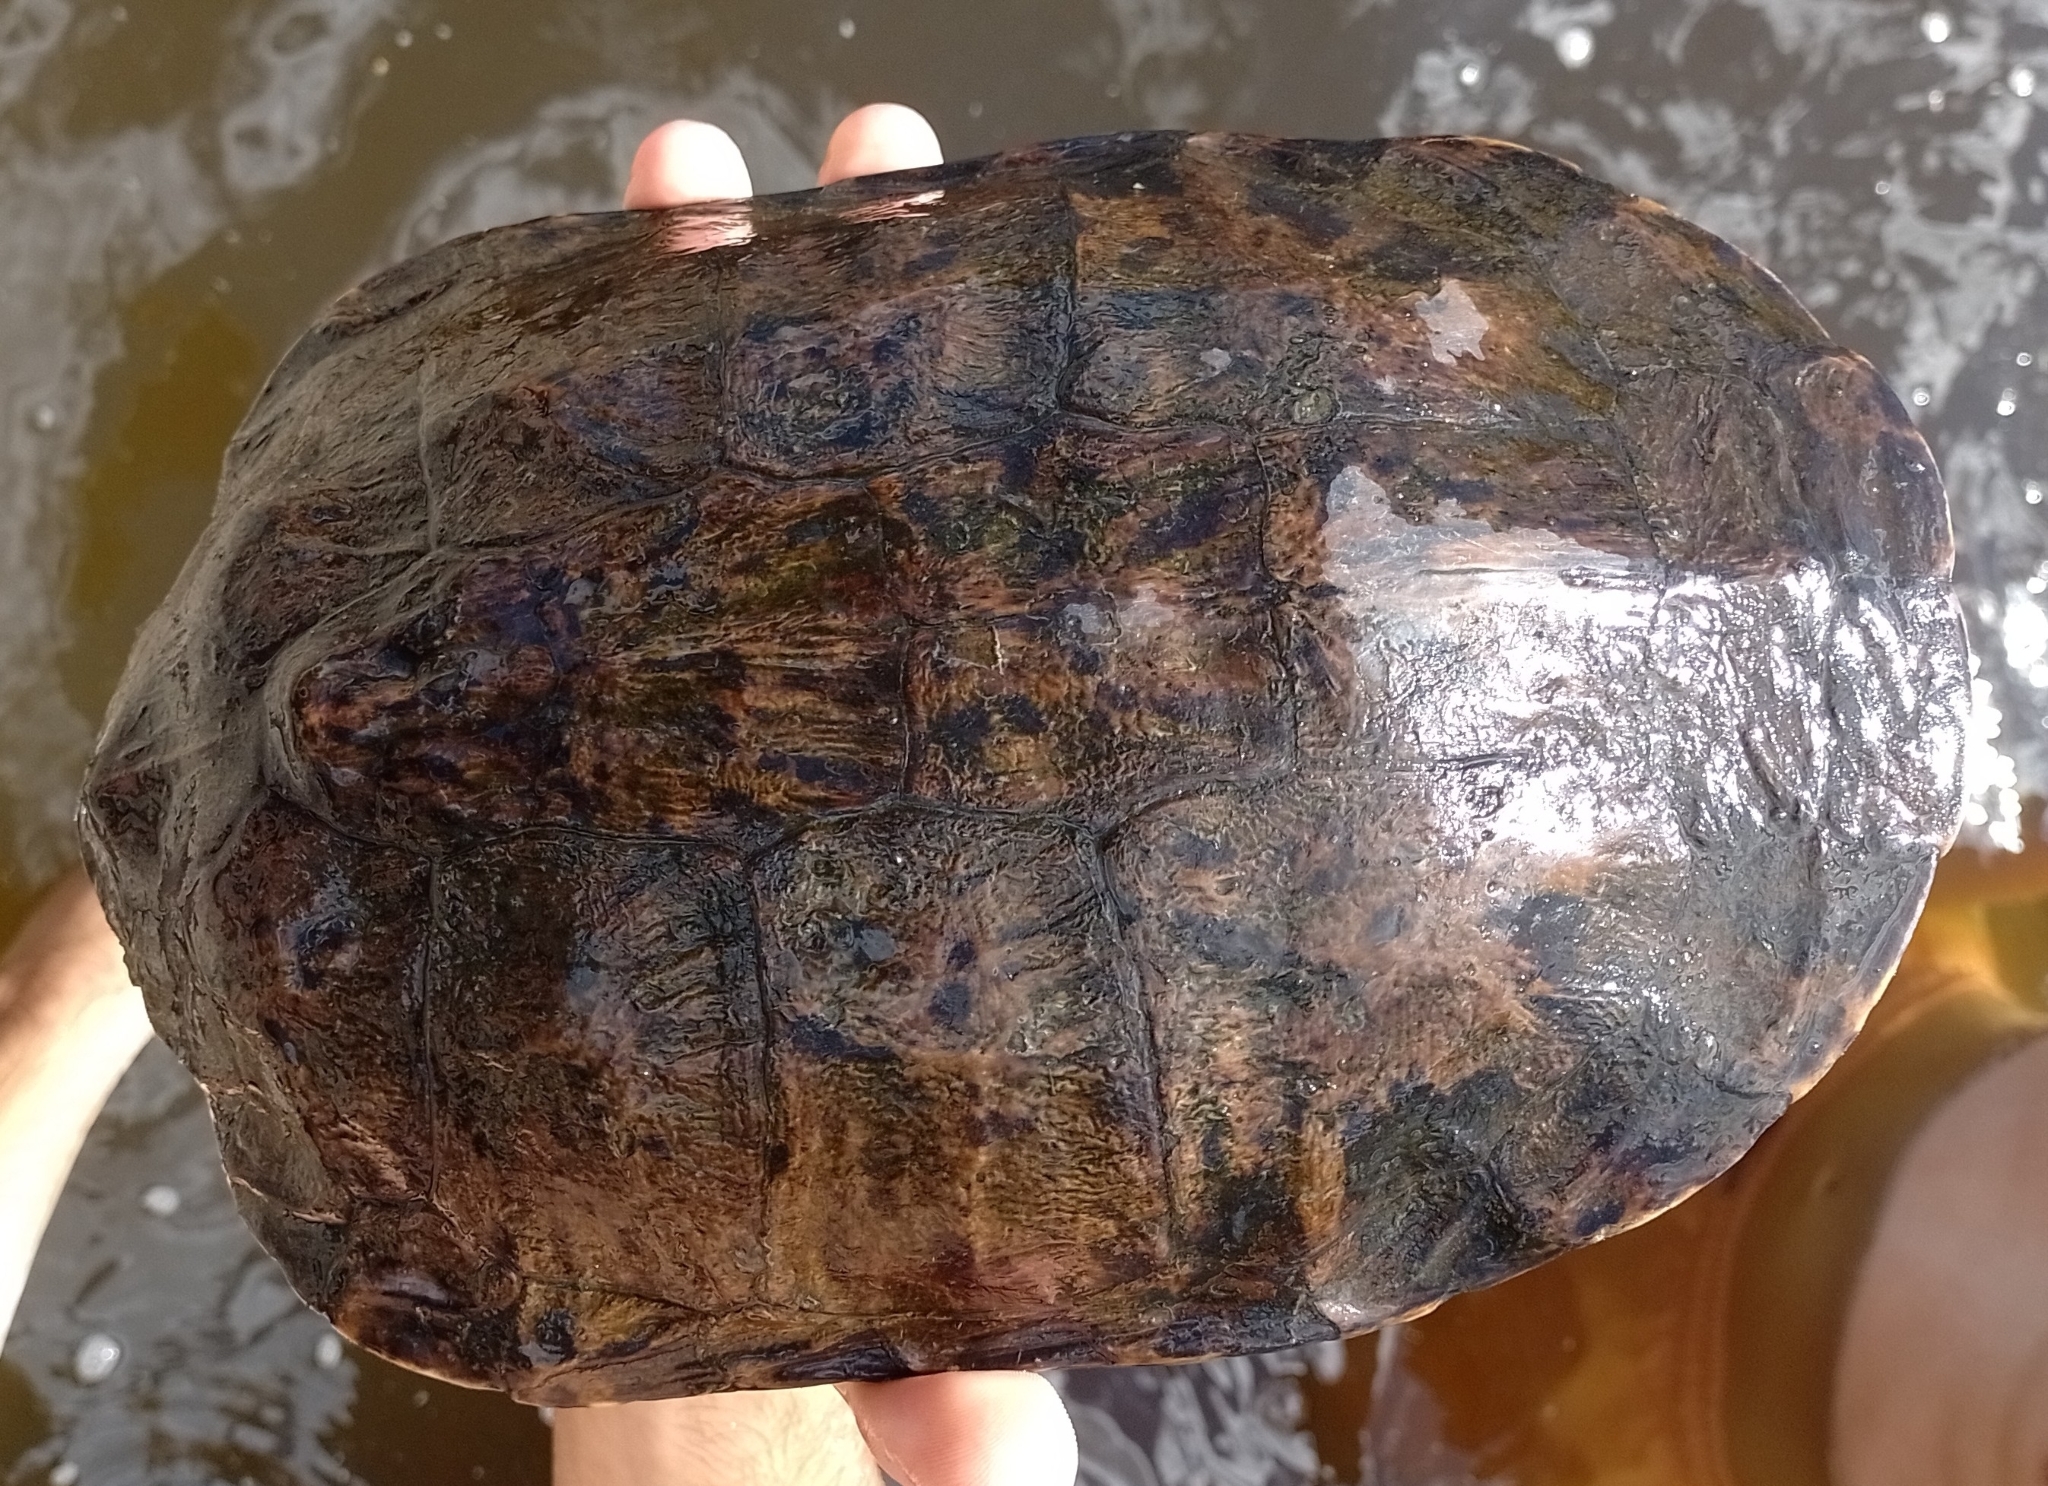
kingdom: Animalia
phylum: Chordata
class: Testudines
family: Chelidae
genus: Hydromedusa
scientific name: Hydromedusa tectifera
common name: Argentine snake-necked turtle
